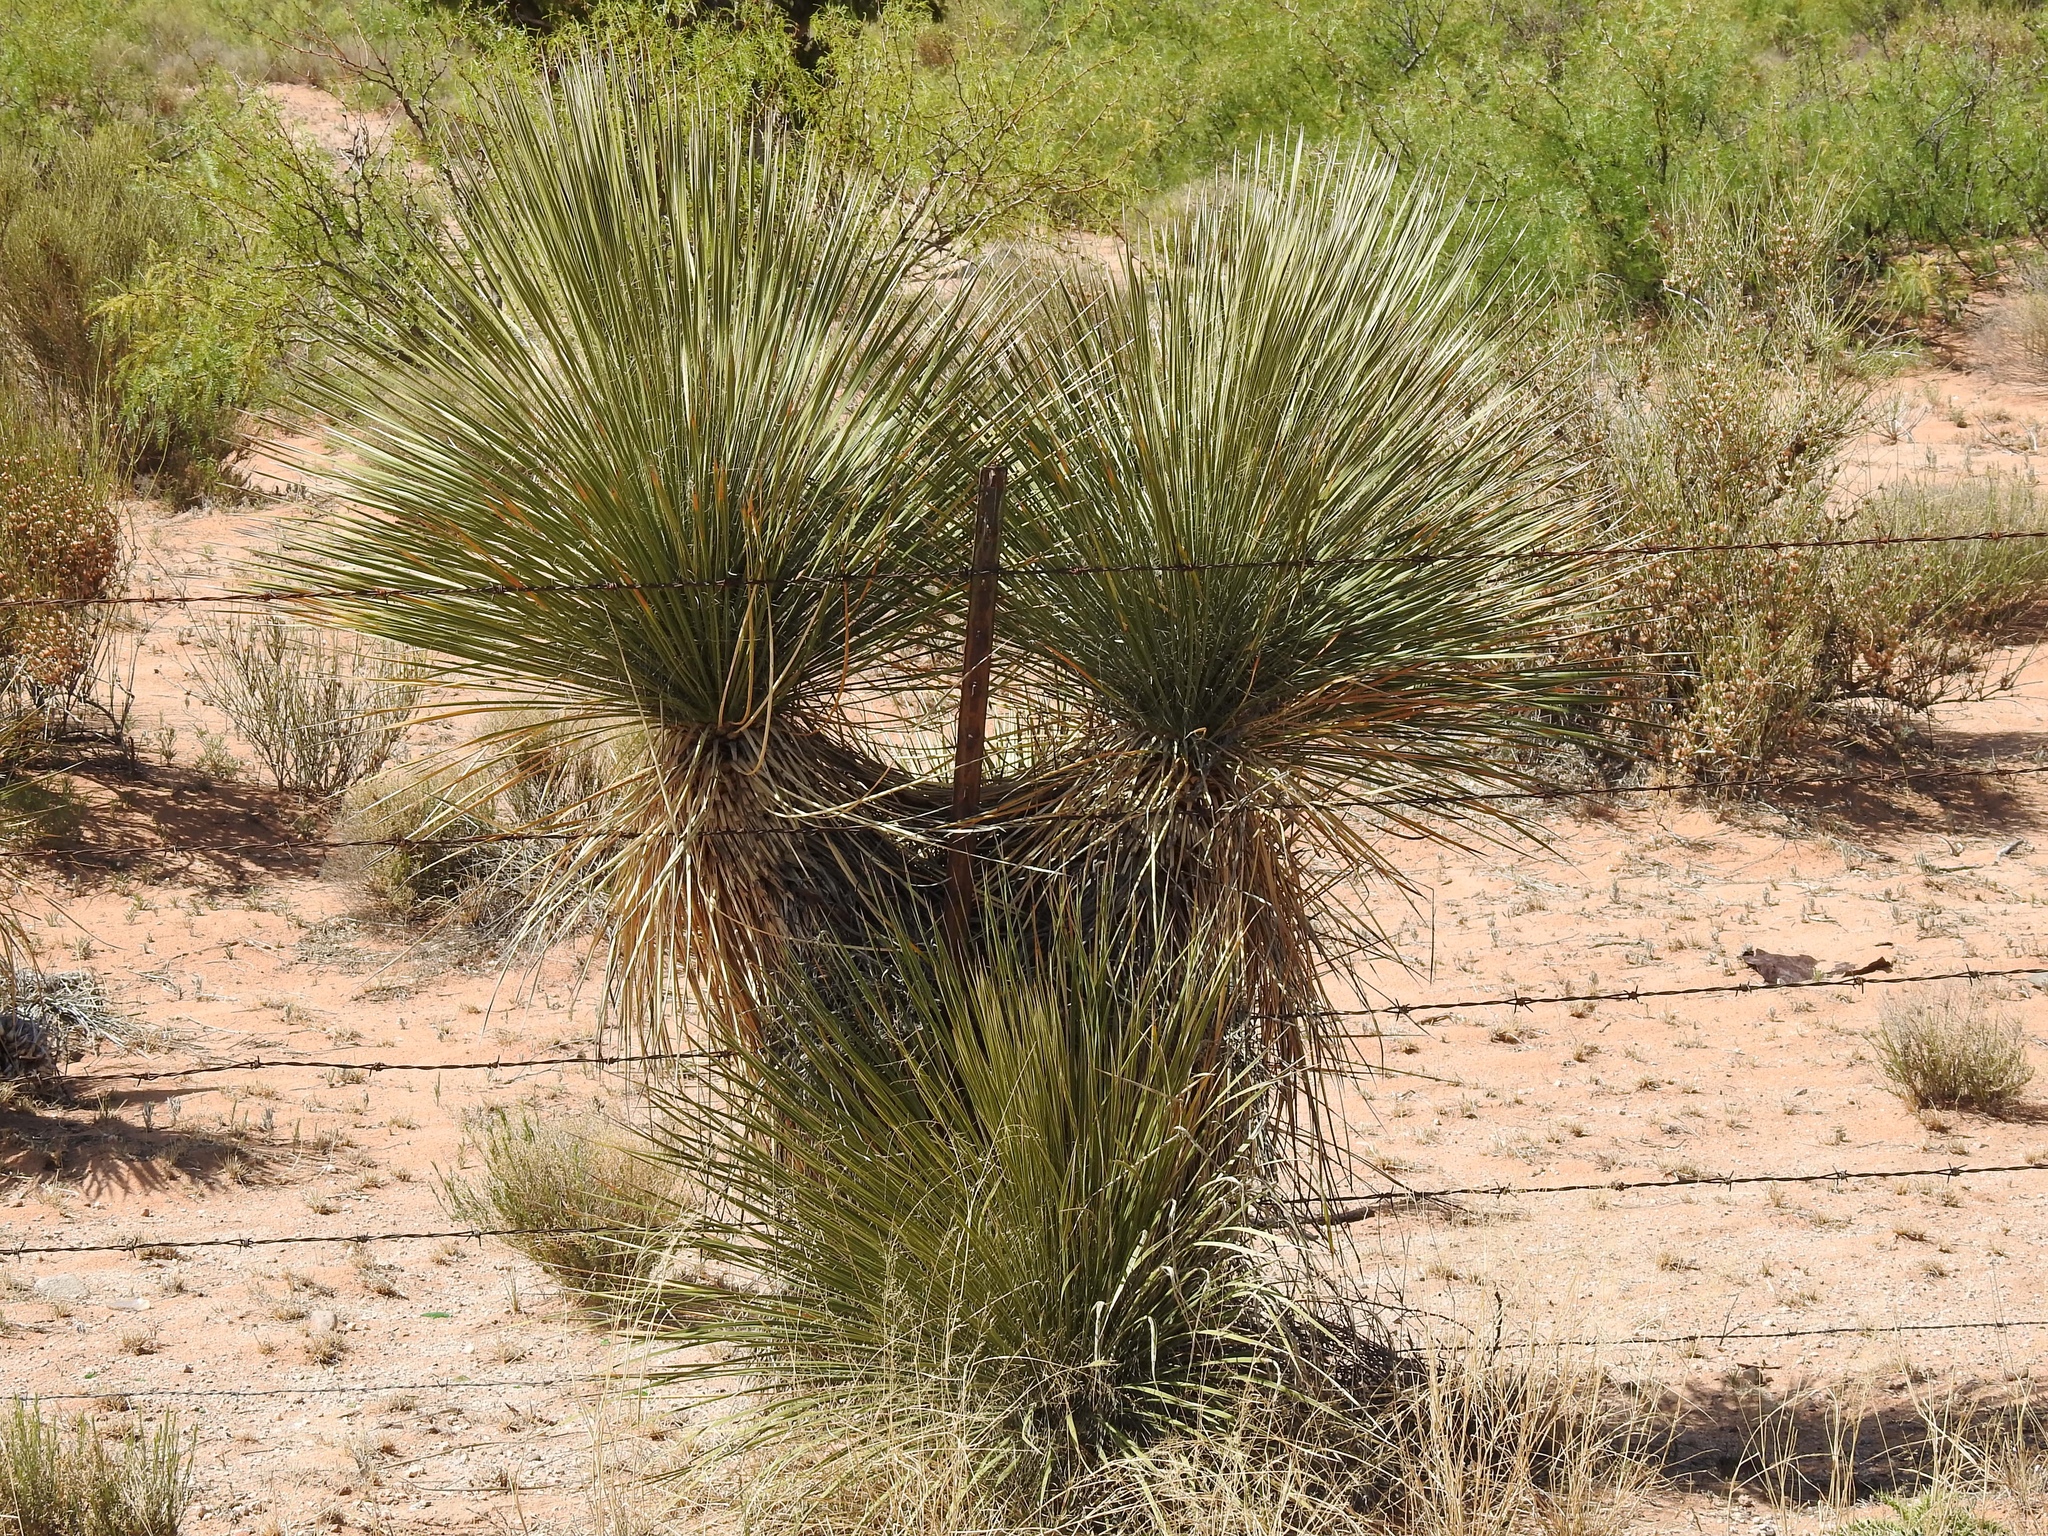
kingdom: Plantae
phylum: Tracheophyta
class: Liliopsida
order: Asparagales
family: Asparagaceae
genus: Yucca
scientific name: Yucca elata
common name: Palmella
